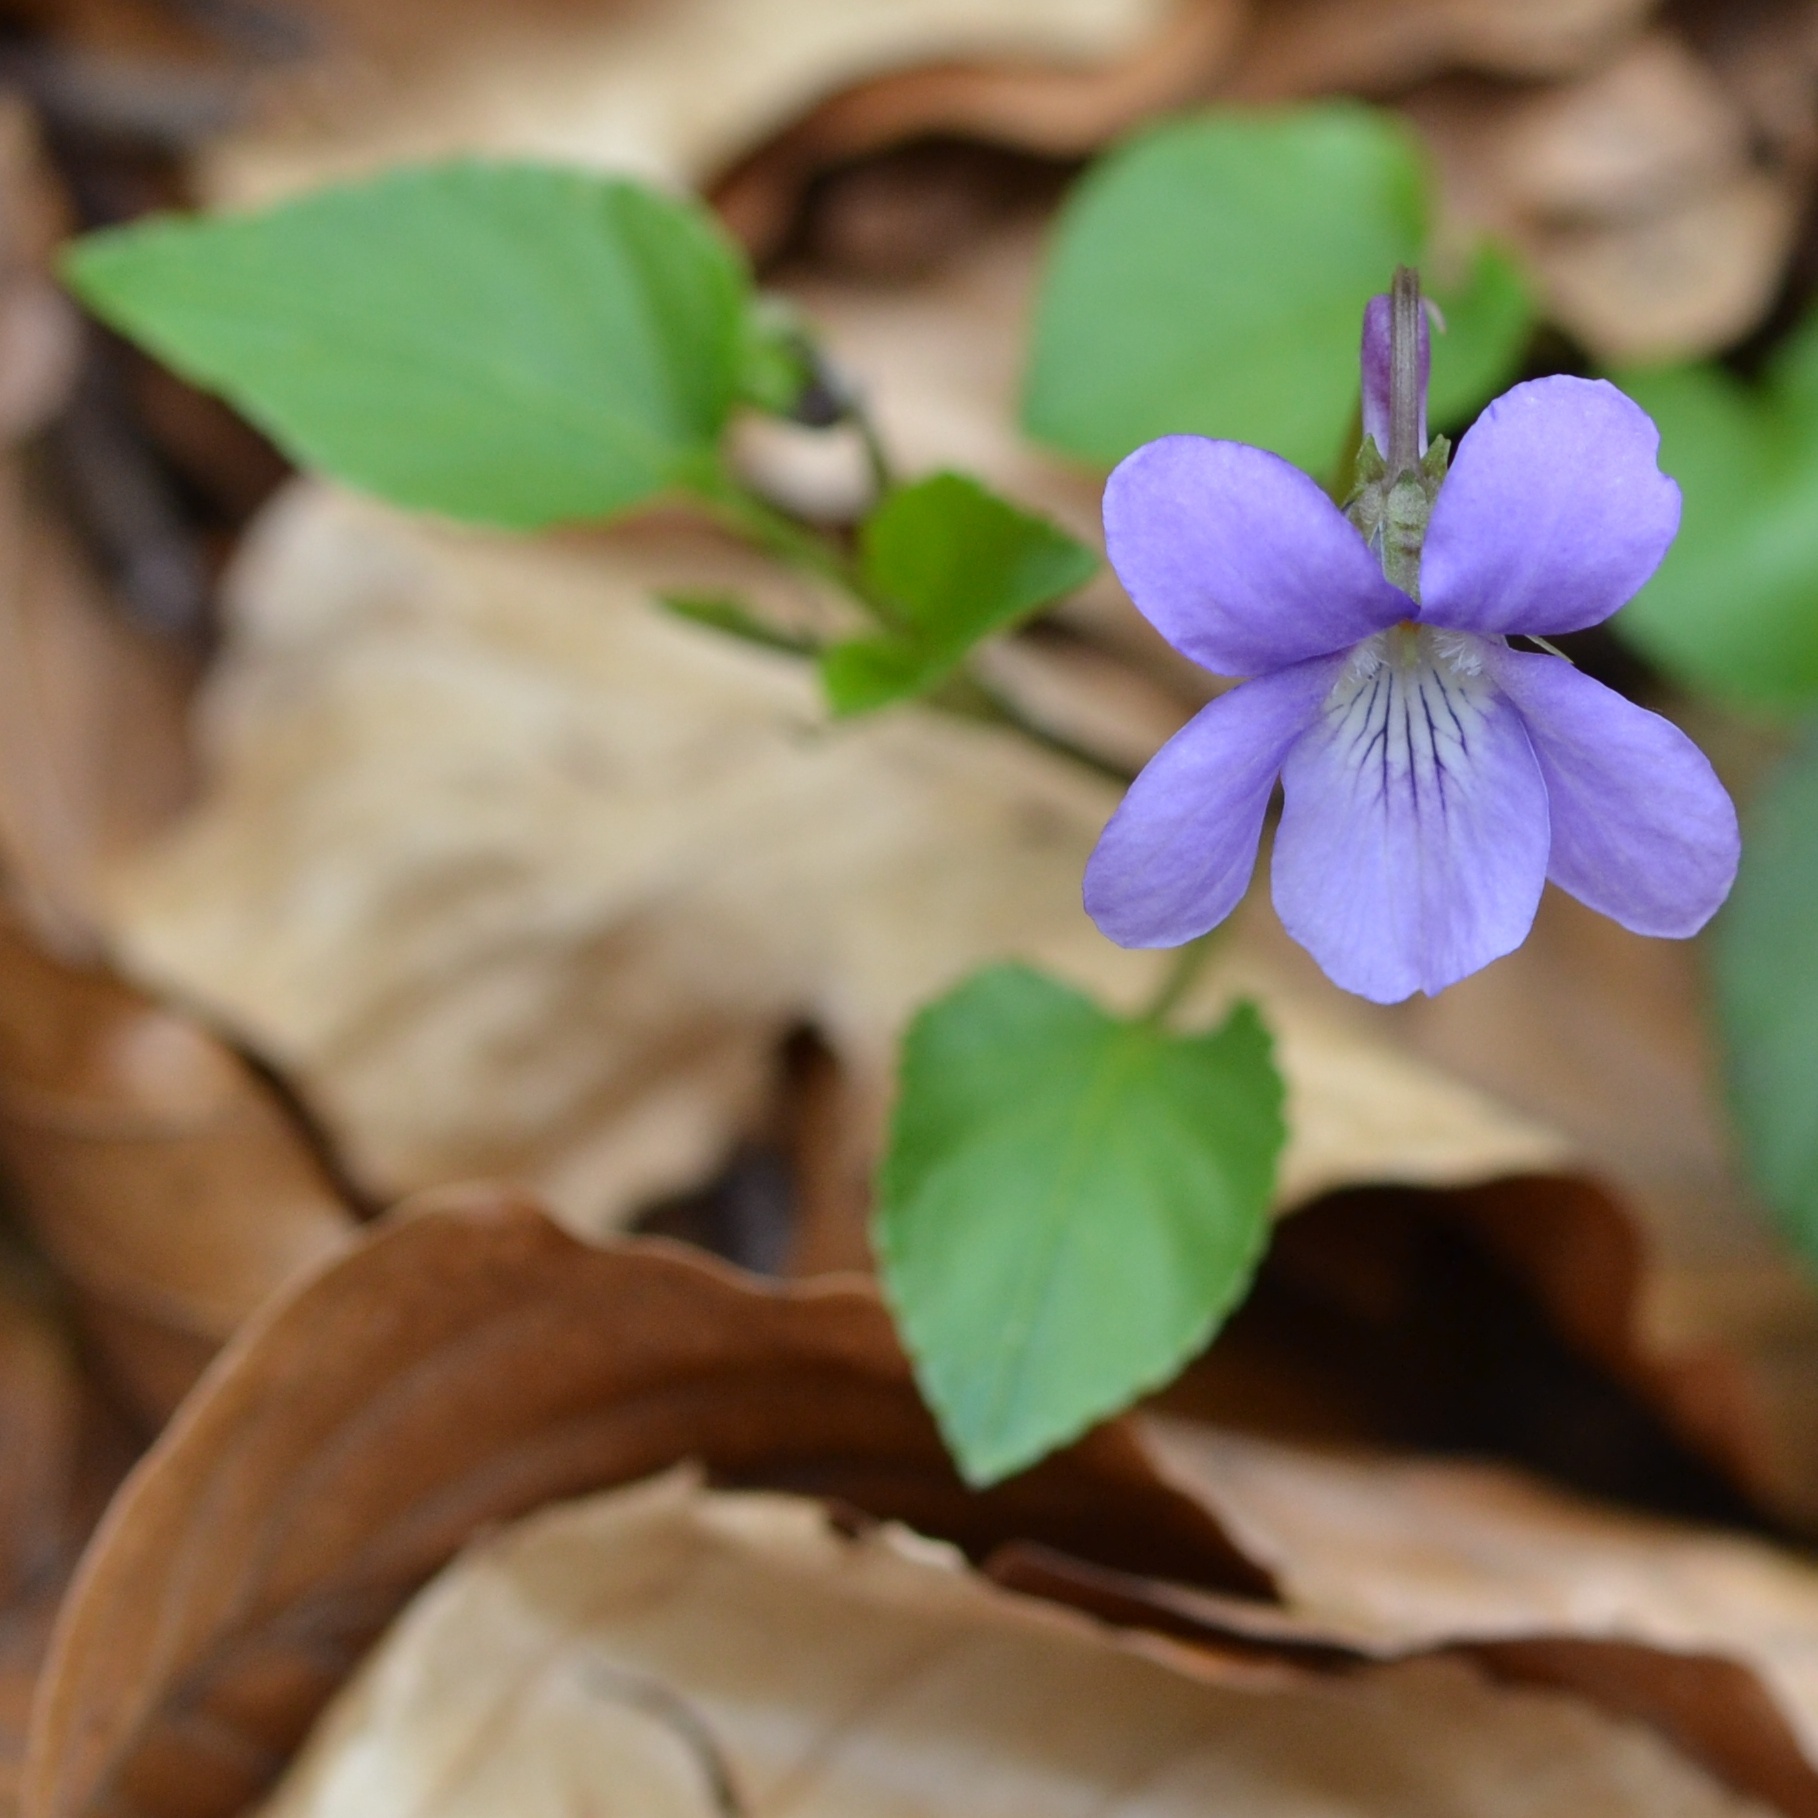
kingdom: Plantae
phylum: Tracheophyta
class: Magnoliopsida
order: Malpighiales
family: Violaceae
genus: Viola
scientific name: Viola reichenbachiana
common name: Early dog-violet
